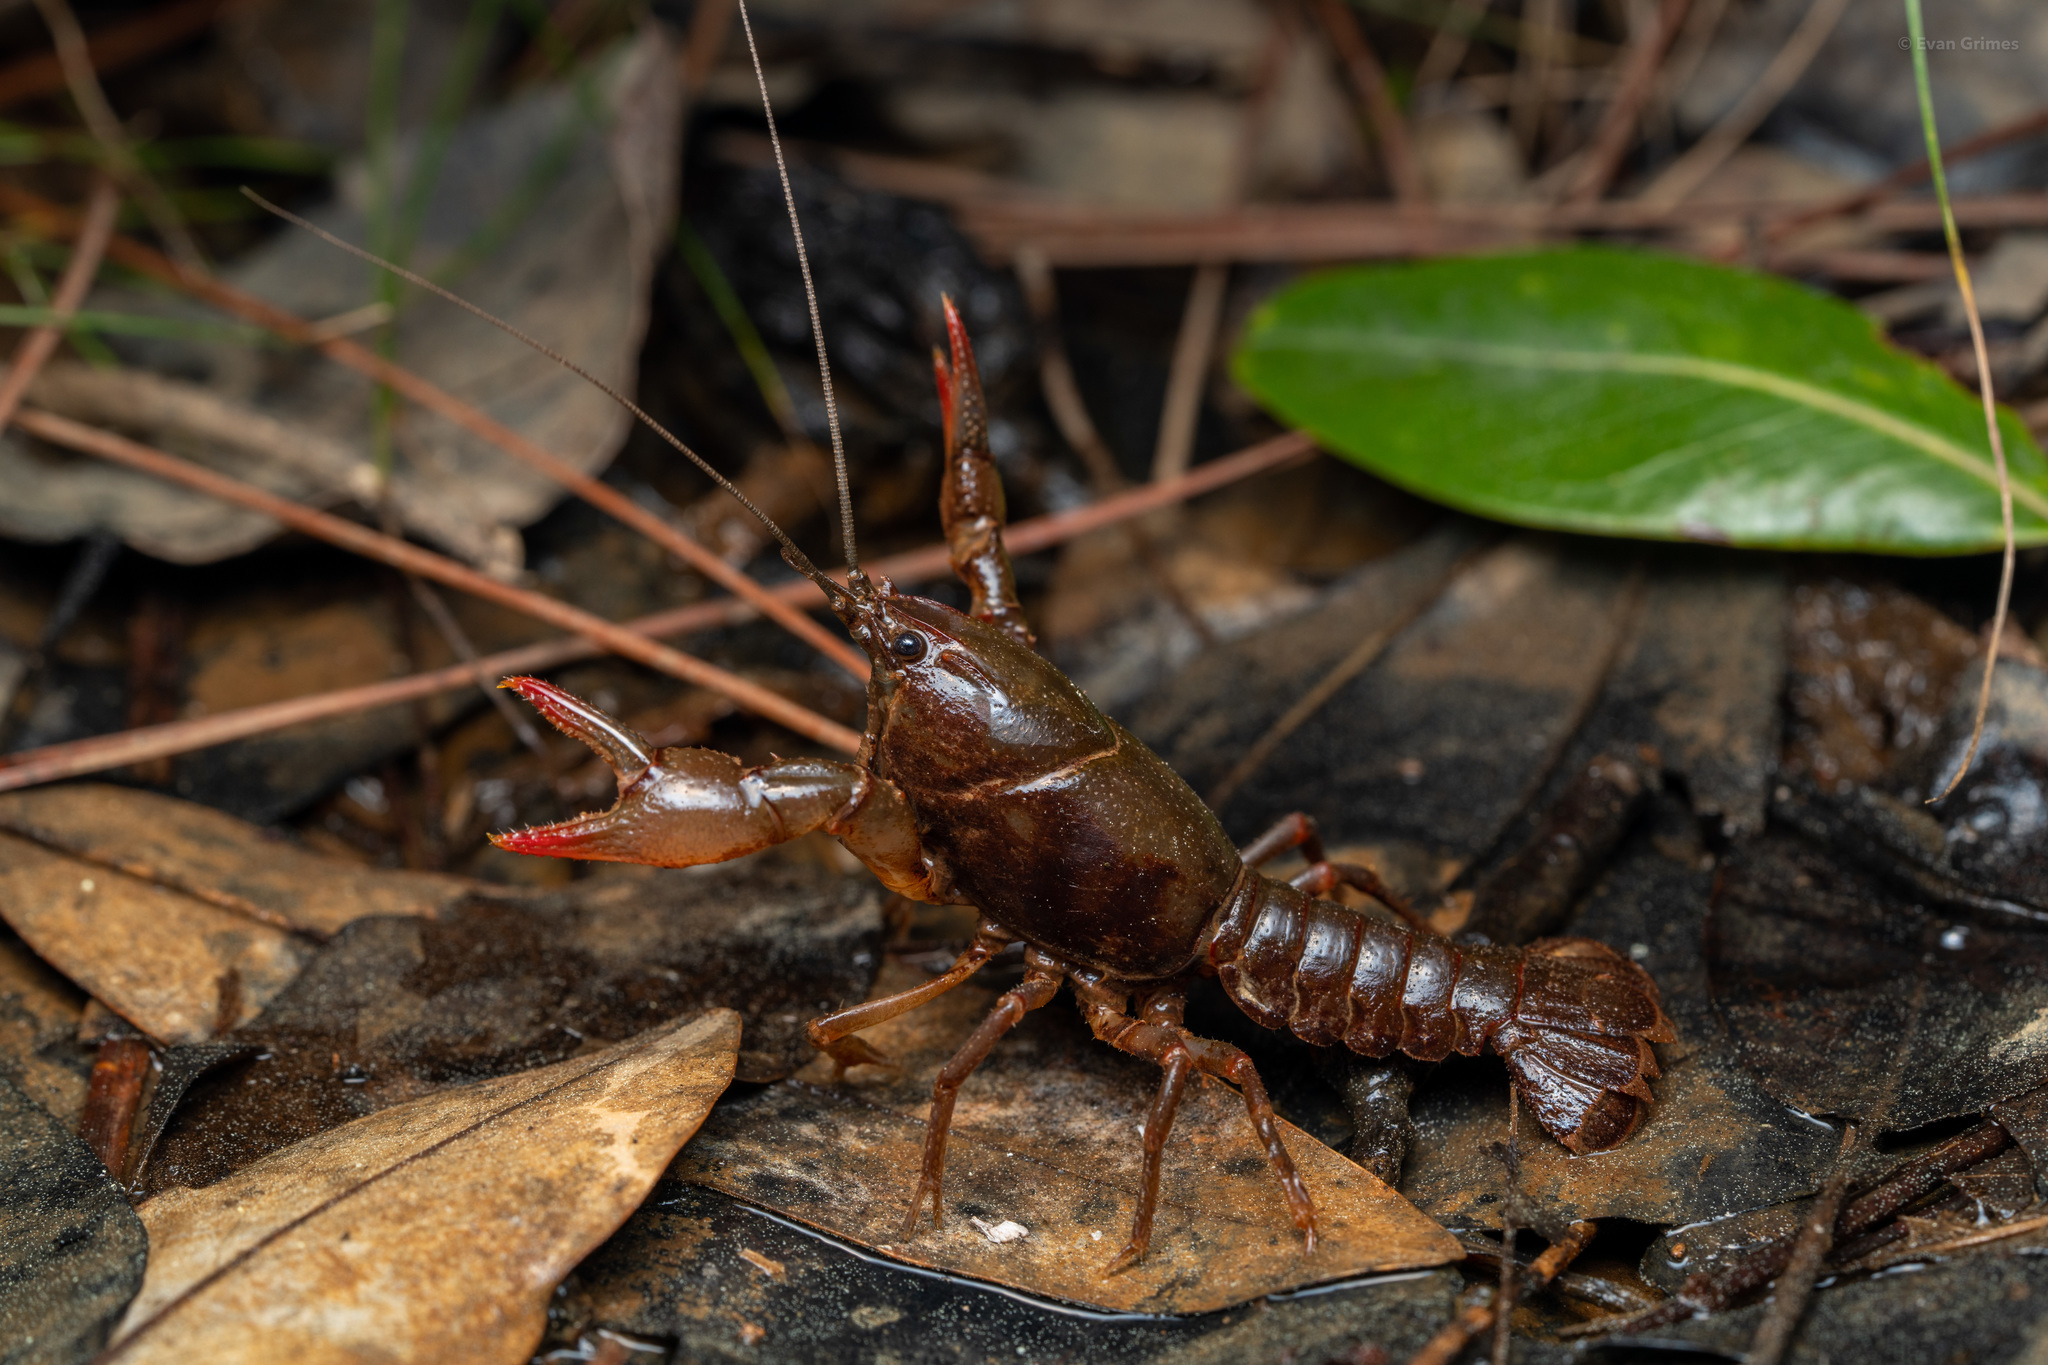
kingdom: Animalia
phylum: Arthropoda
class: Malacostraca
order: Decapoda
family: Cambaridae
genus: Lacunicambarus
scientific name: Lacunicambarus erythrodactylus
